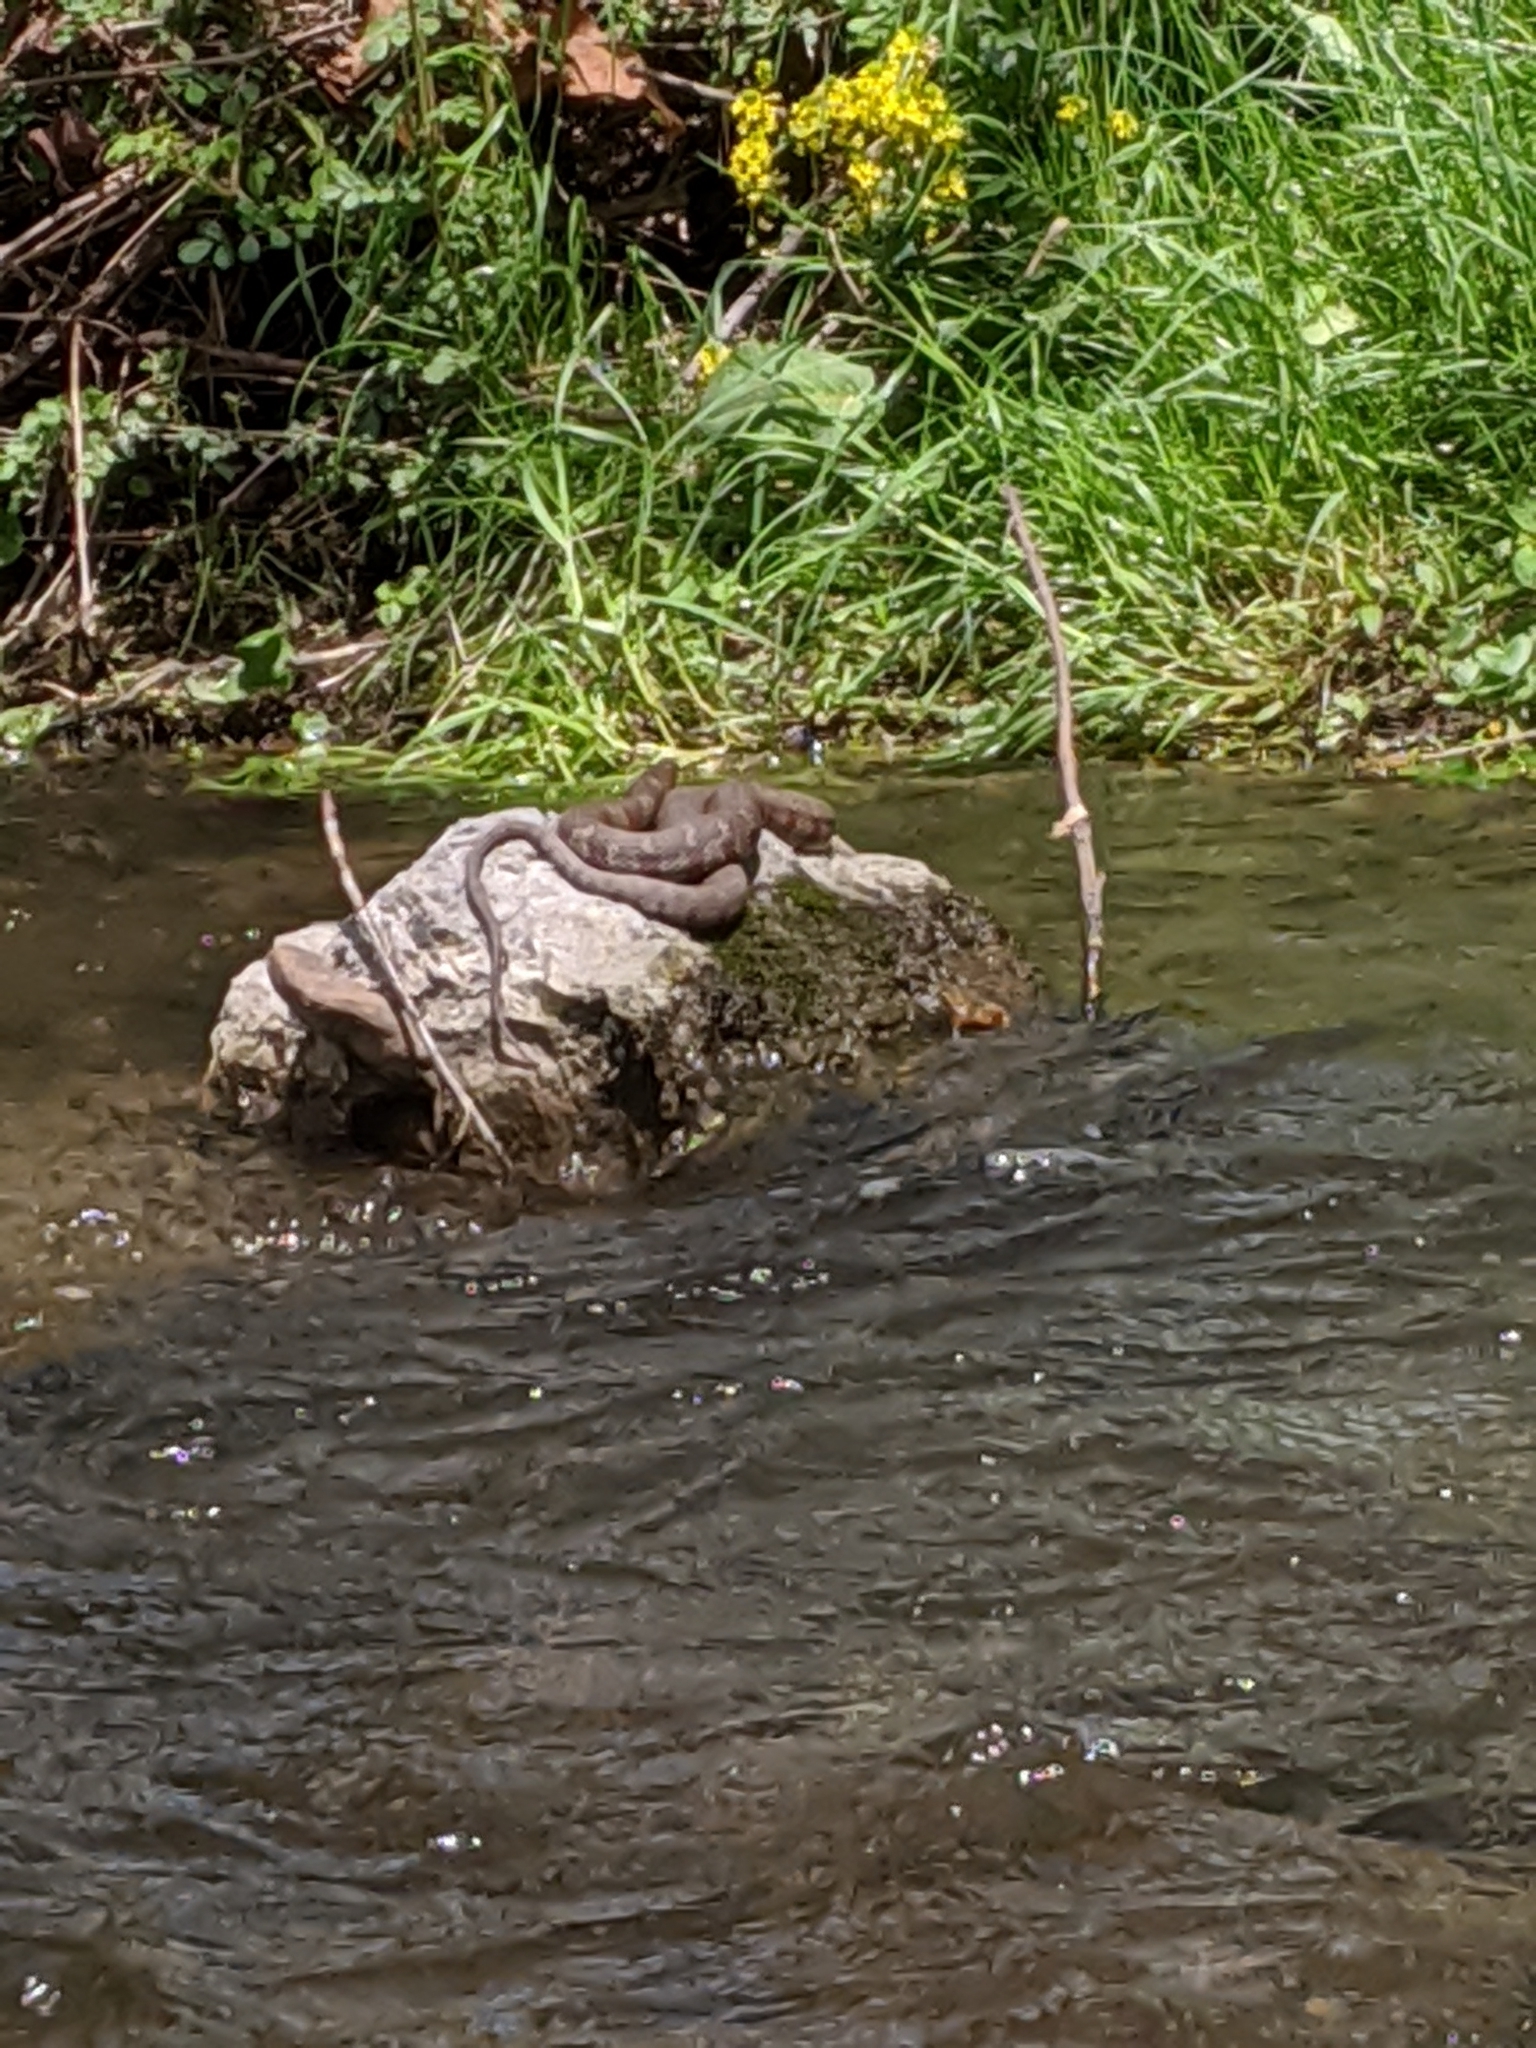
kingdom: Animalia
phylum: Chordata
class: Squamata
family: Colubridae
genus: Nerodia
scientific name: Nerodia sipedon
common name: Northern water snake
